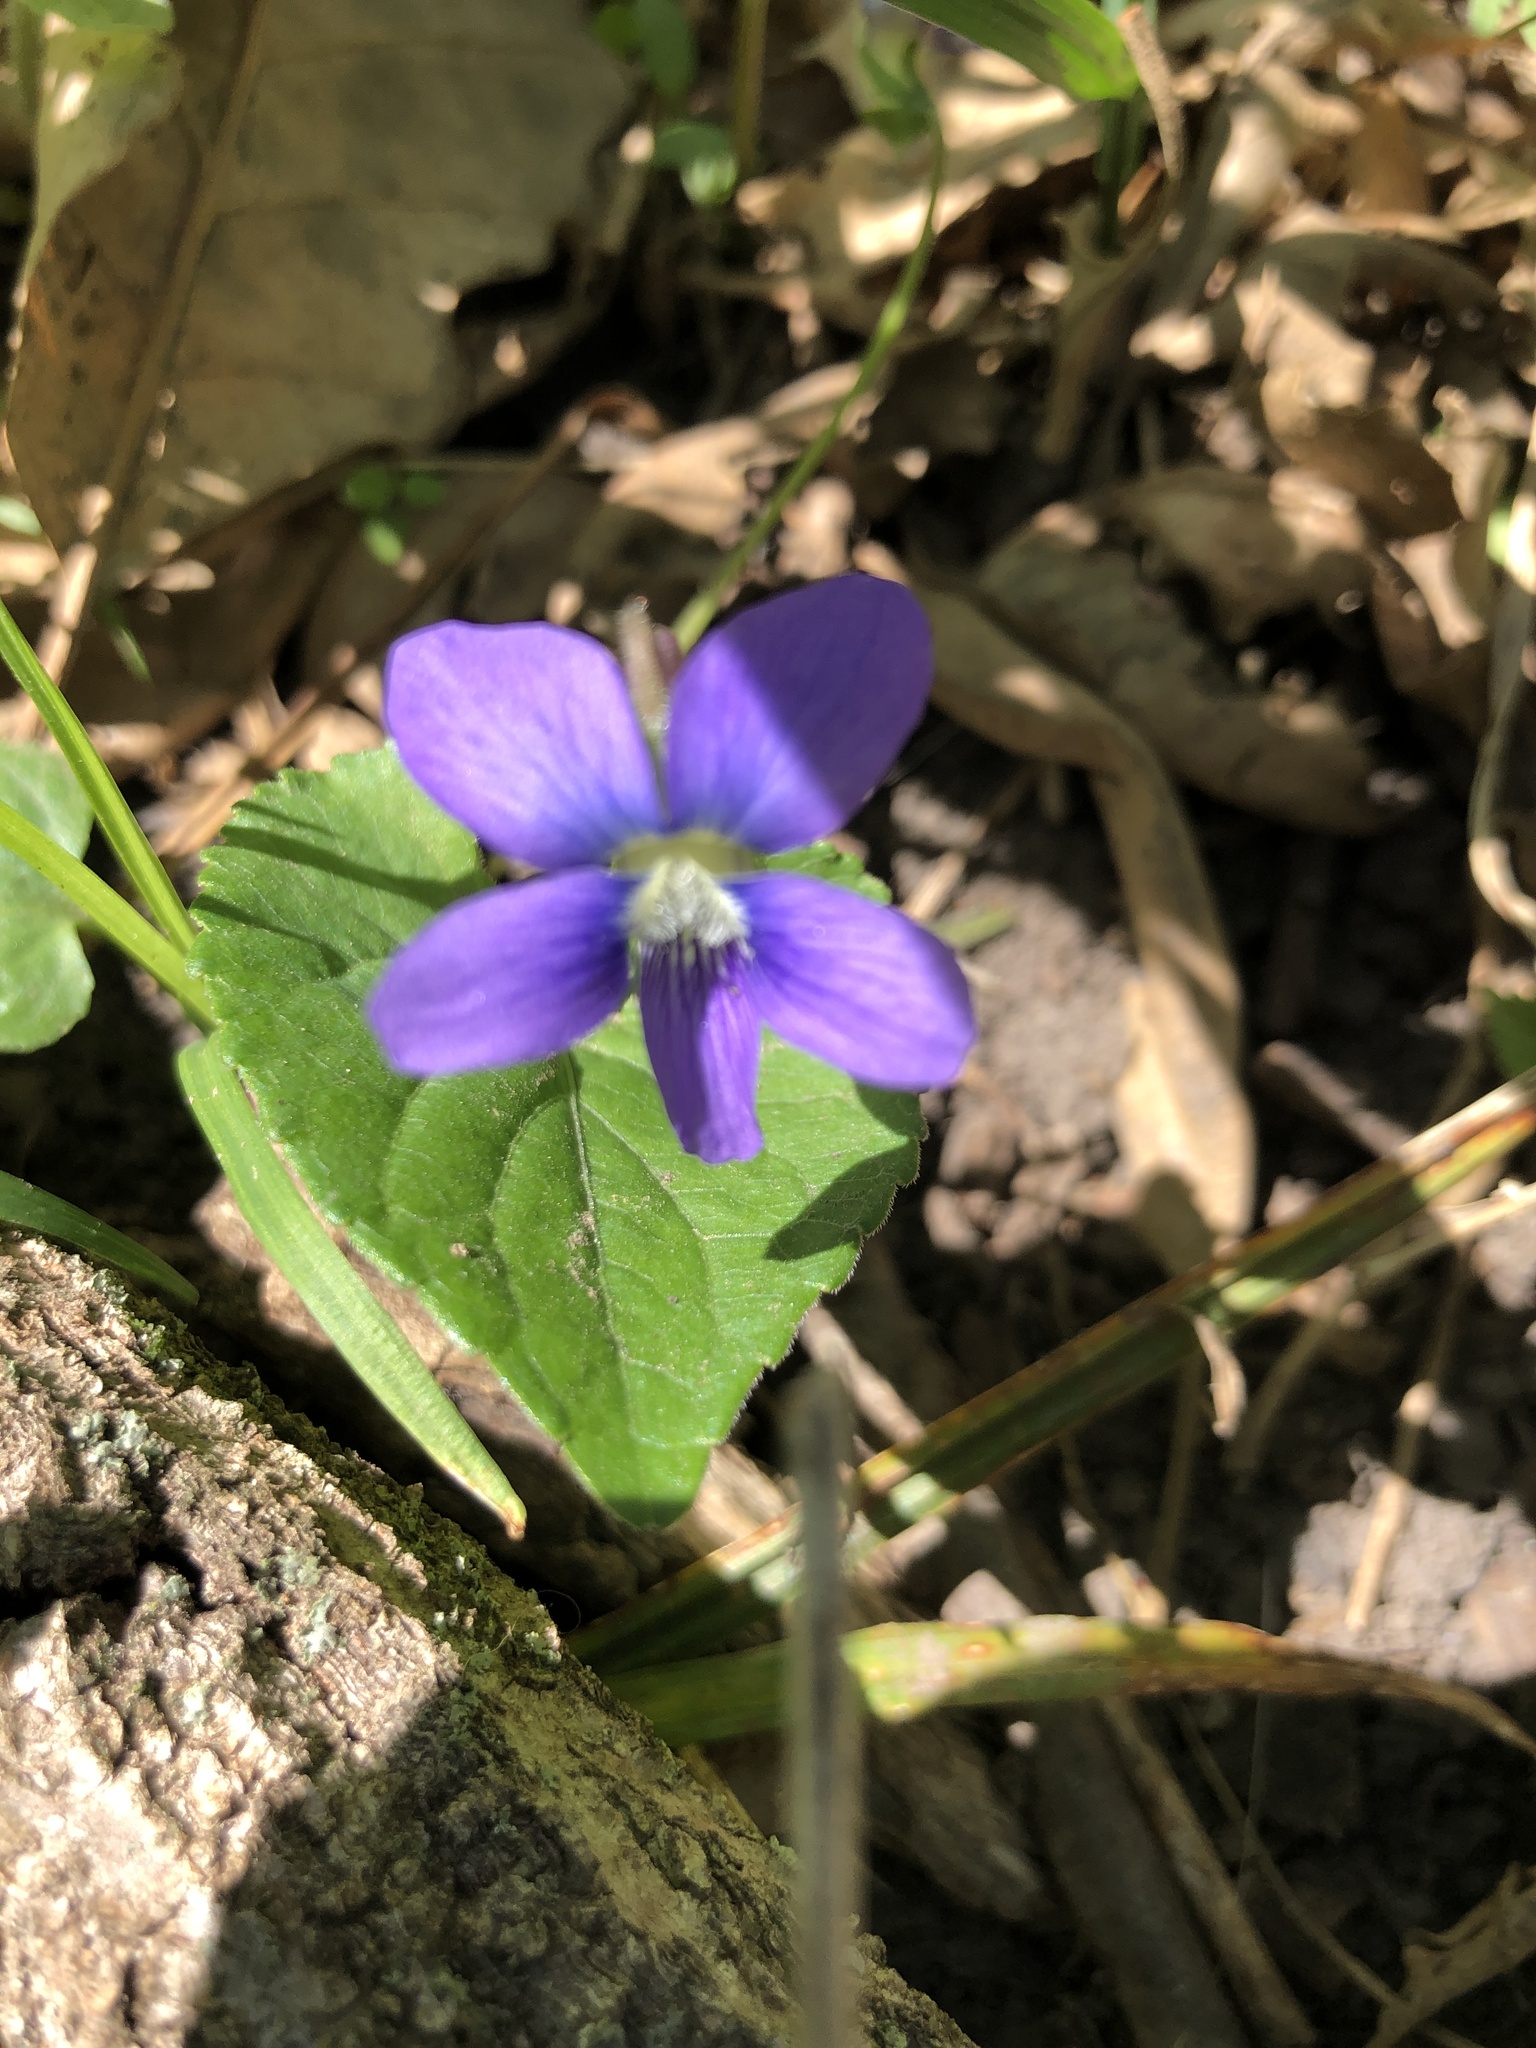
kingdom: Plantae
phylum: Tracheophyta
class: Magnoliopsida
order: Malpighiales
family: Violaceae
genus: Viola
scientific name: Viola sororia
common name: Dooryard violet
